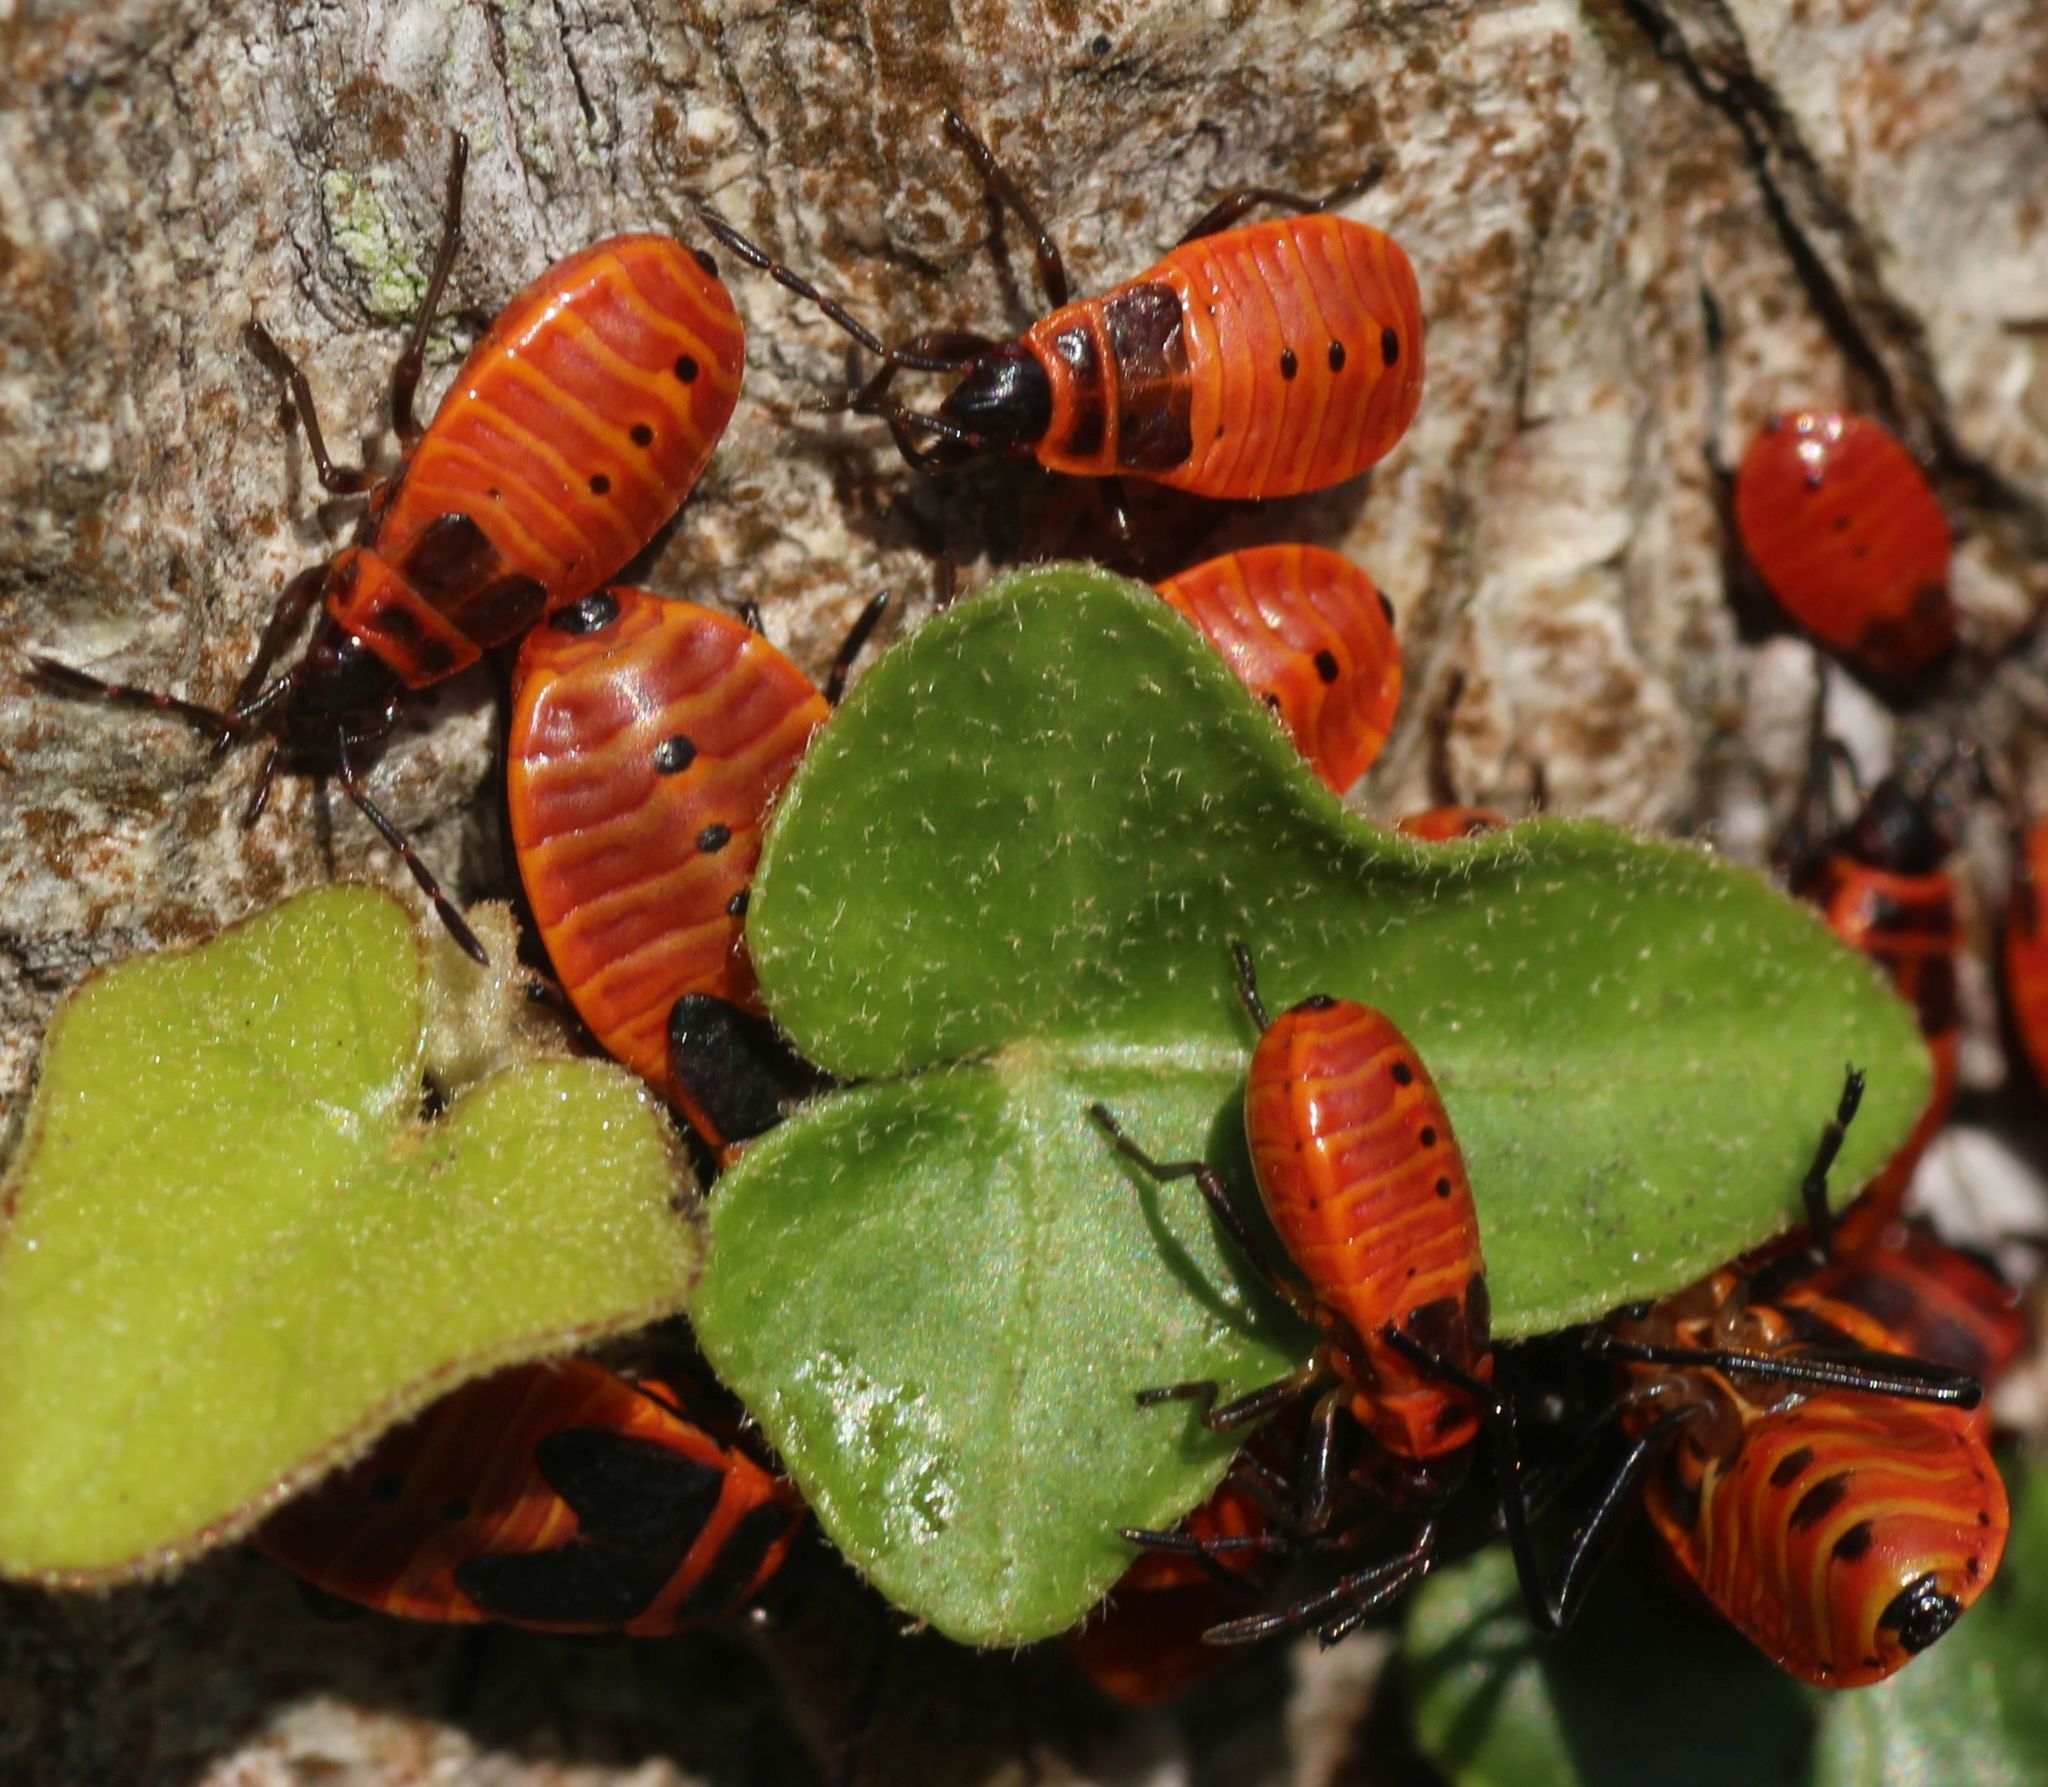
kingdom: Animalia
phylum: Arthropoda
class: Insecta
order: Hemiptera
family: Pyrrhocoridae
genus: Pyrrhocoris
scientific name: Pyrrhocoris apterus
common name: Firebug
